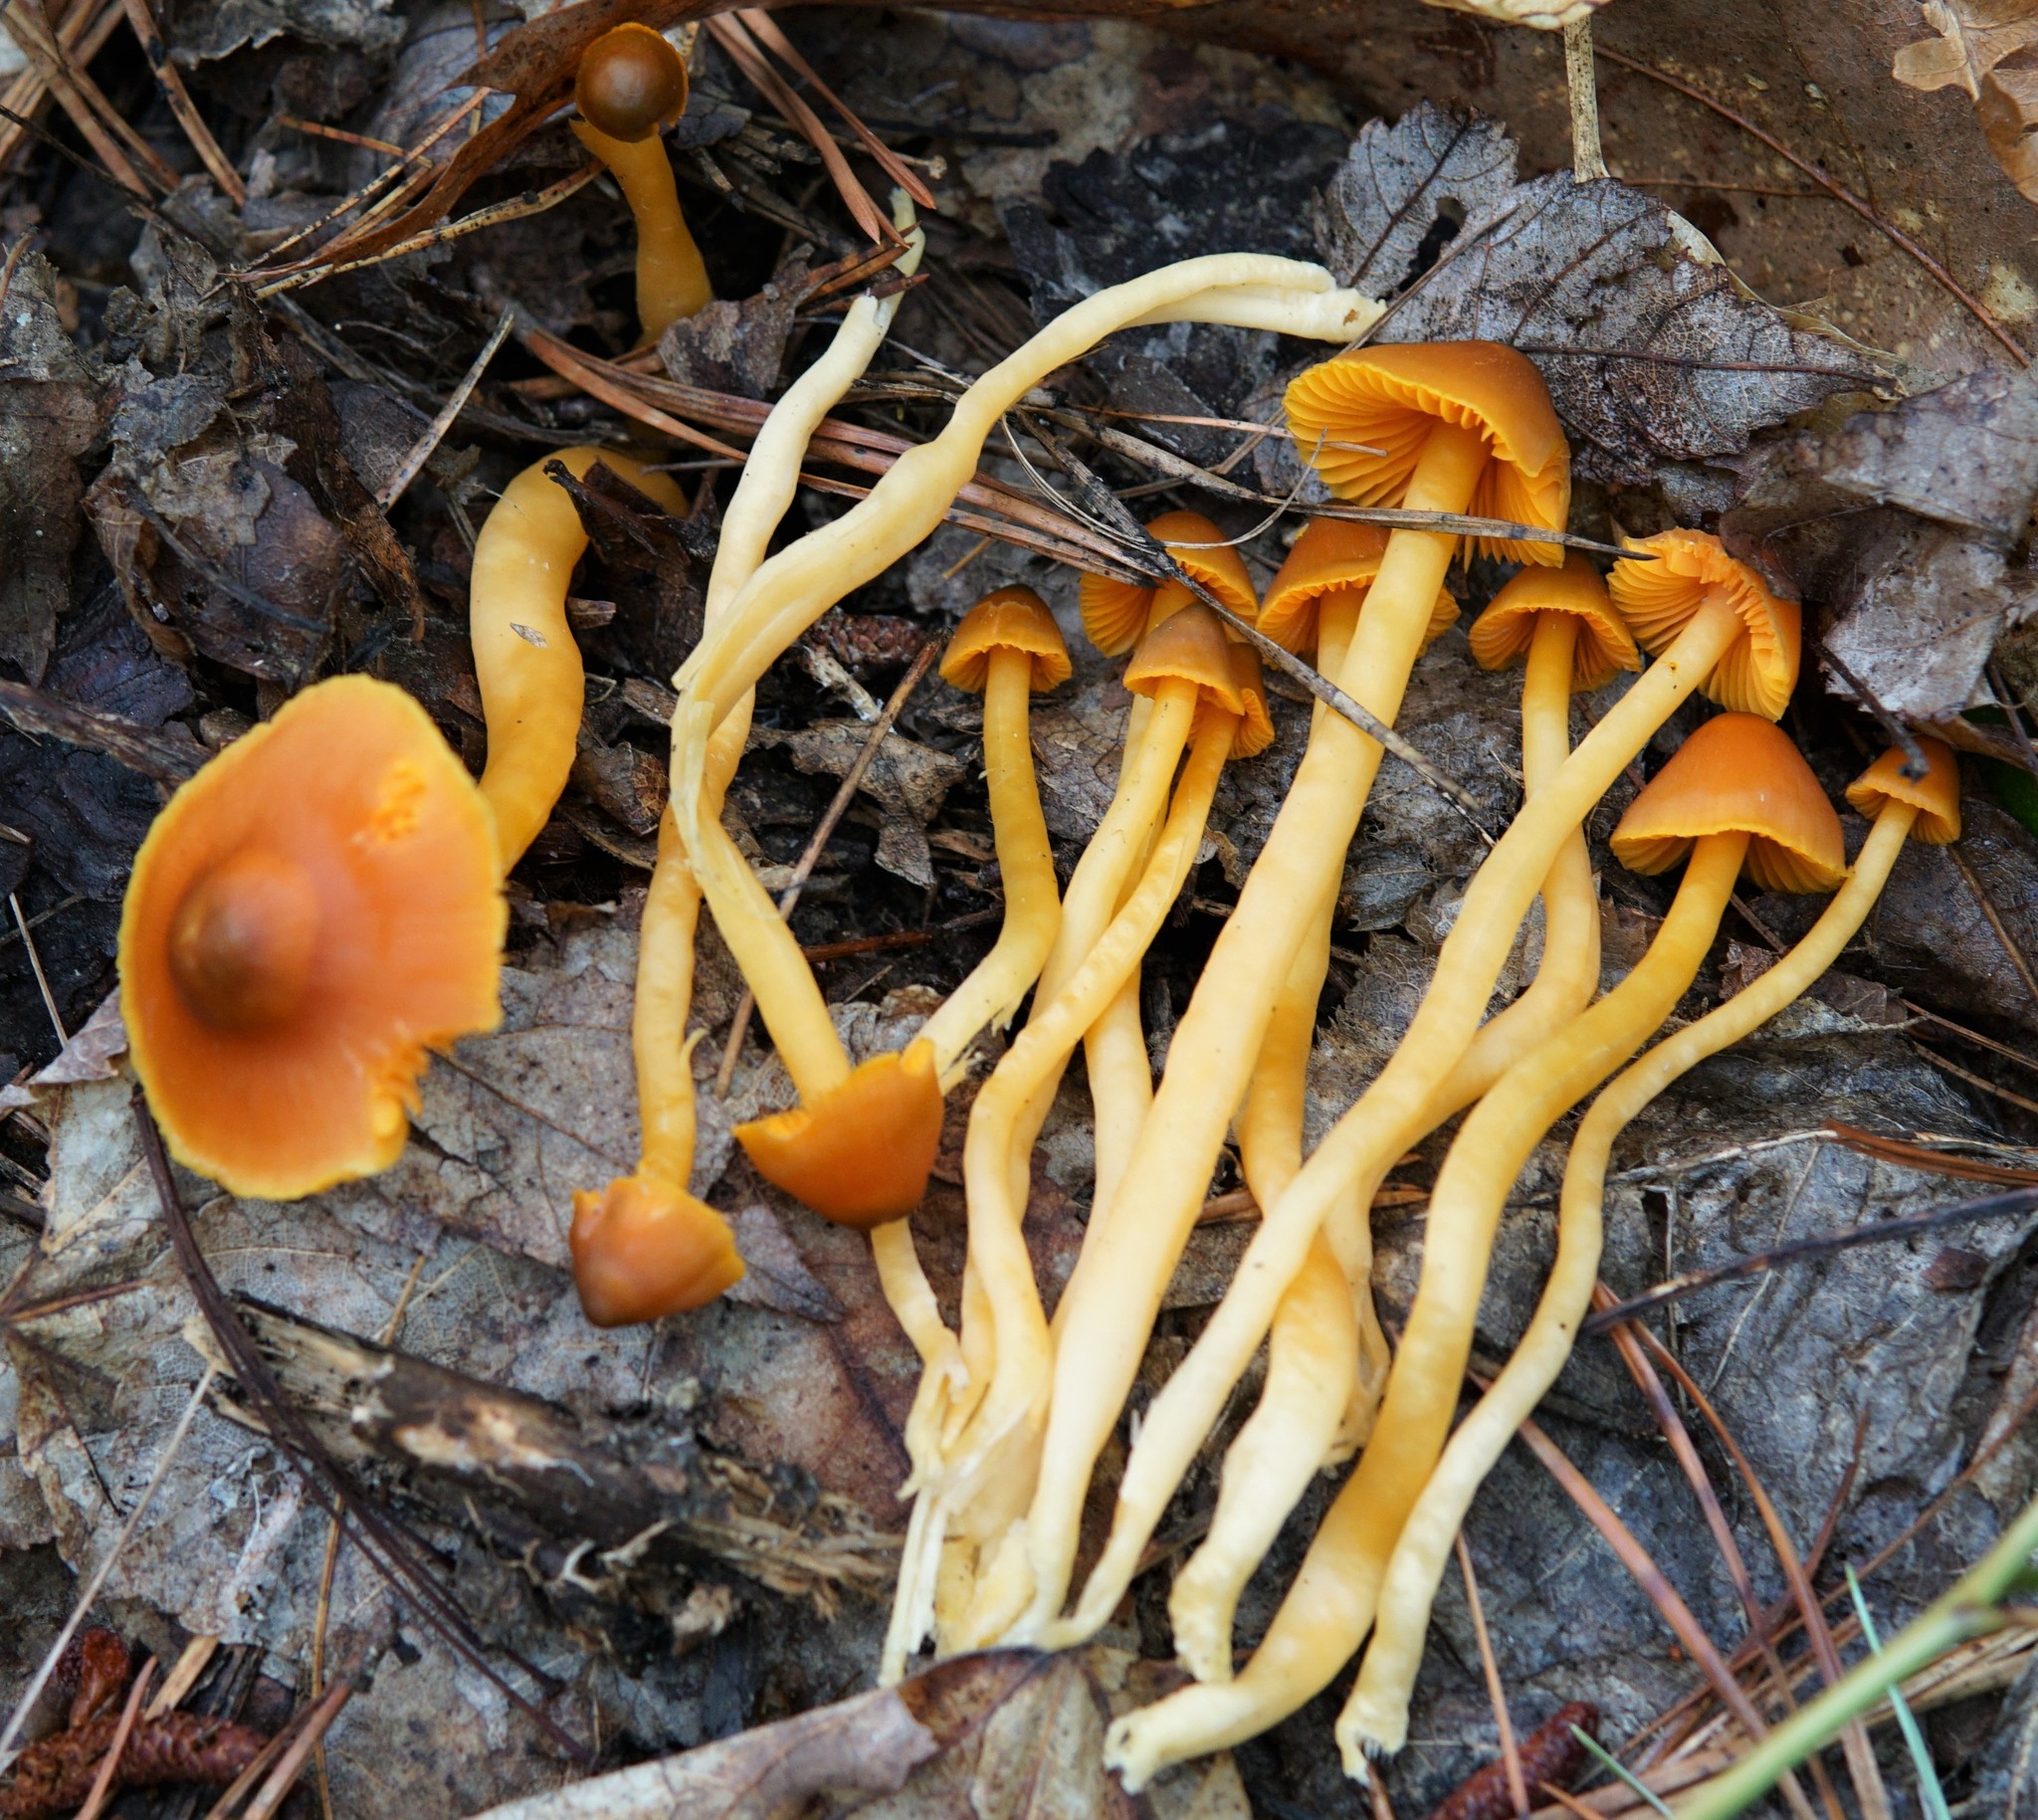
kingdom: Fungi
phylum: Basidiomycota
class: Agaricomycetes
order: Agaricales
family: Hygrophoraceae
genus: Humidicutis
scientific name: Humidicutis marginata
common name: Orange gilled waxcap
